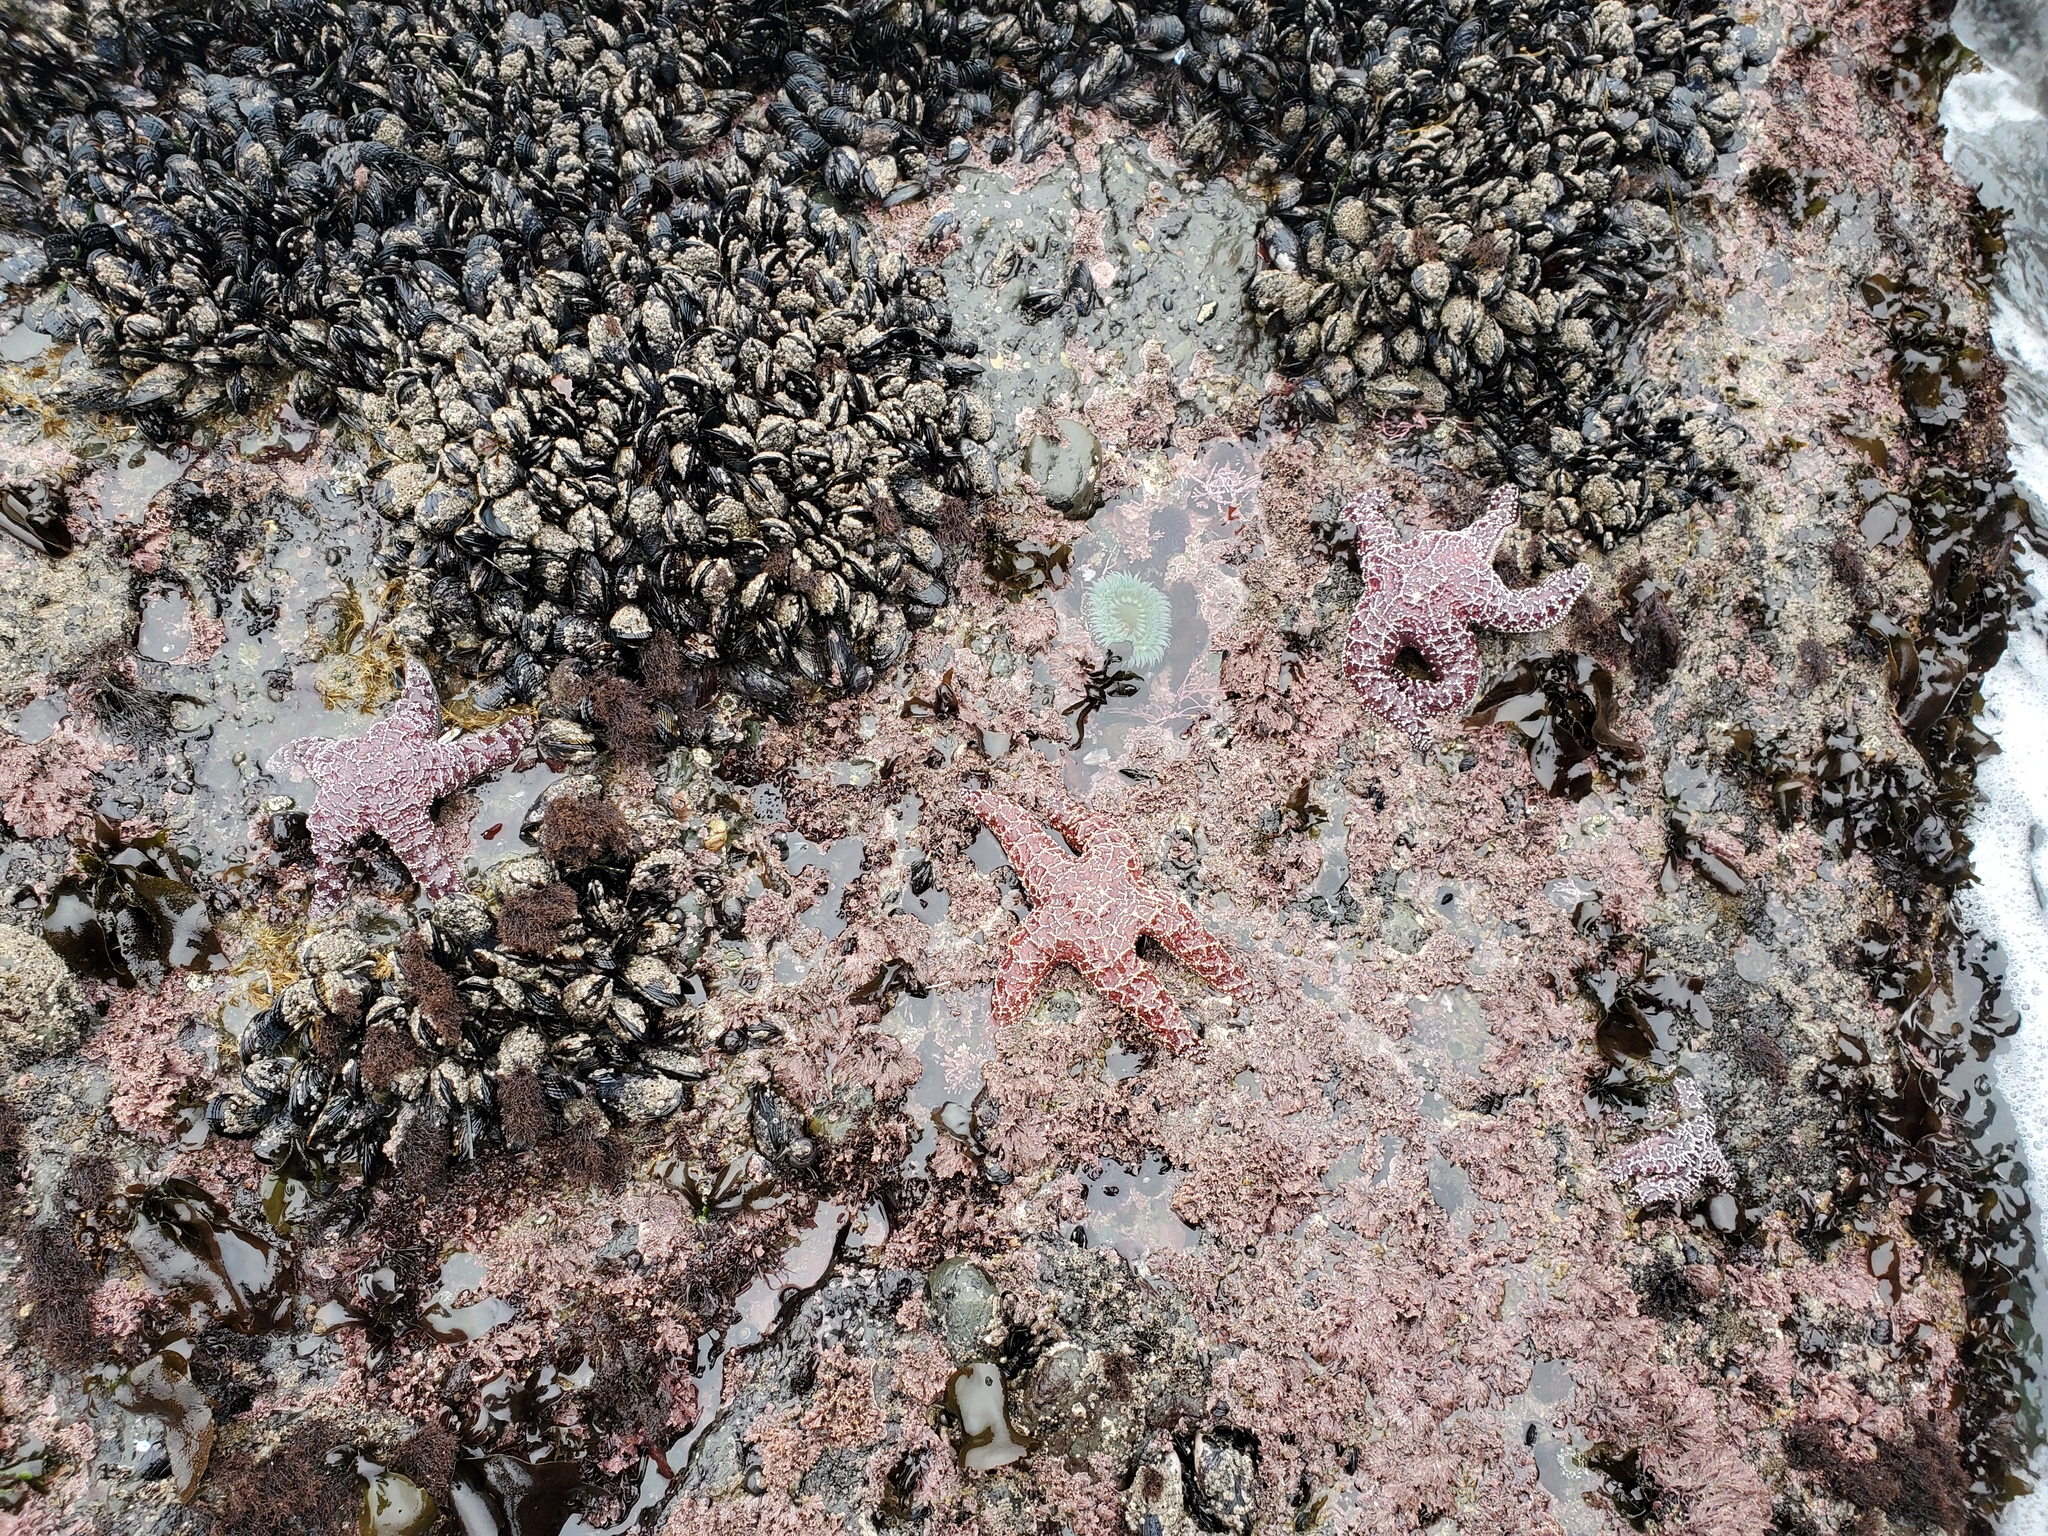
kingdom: Animalia
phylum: Echinodermata
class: Asteroidea
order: Forcipulatida
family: Asteriidae
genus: Pisaster
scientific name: Pisaster ochraceus
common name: Ochre stars
